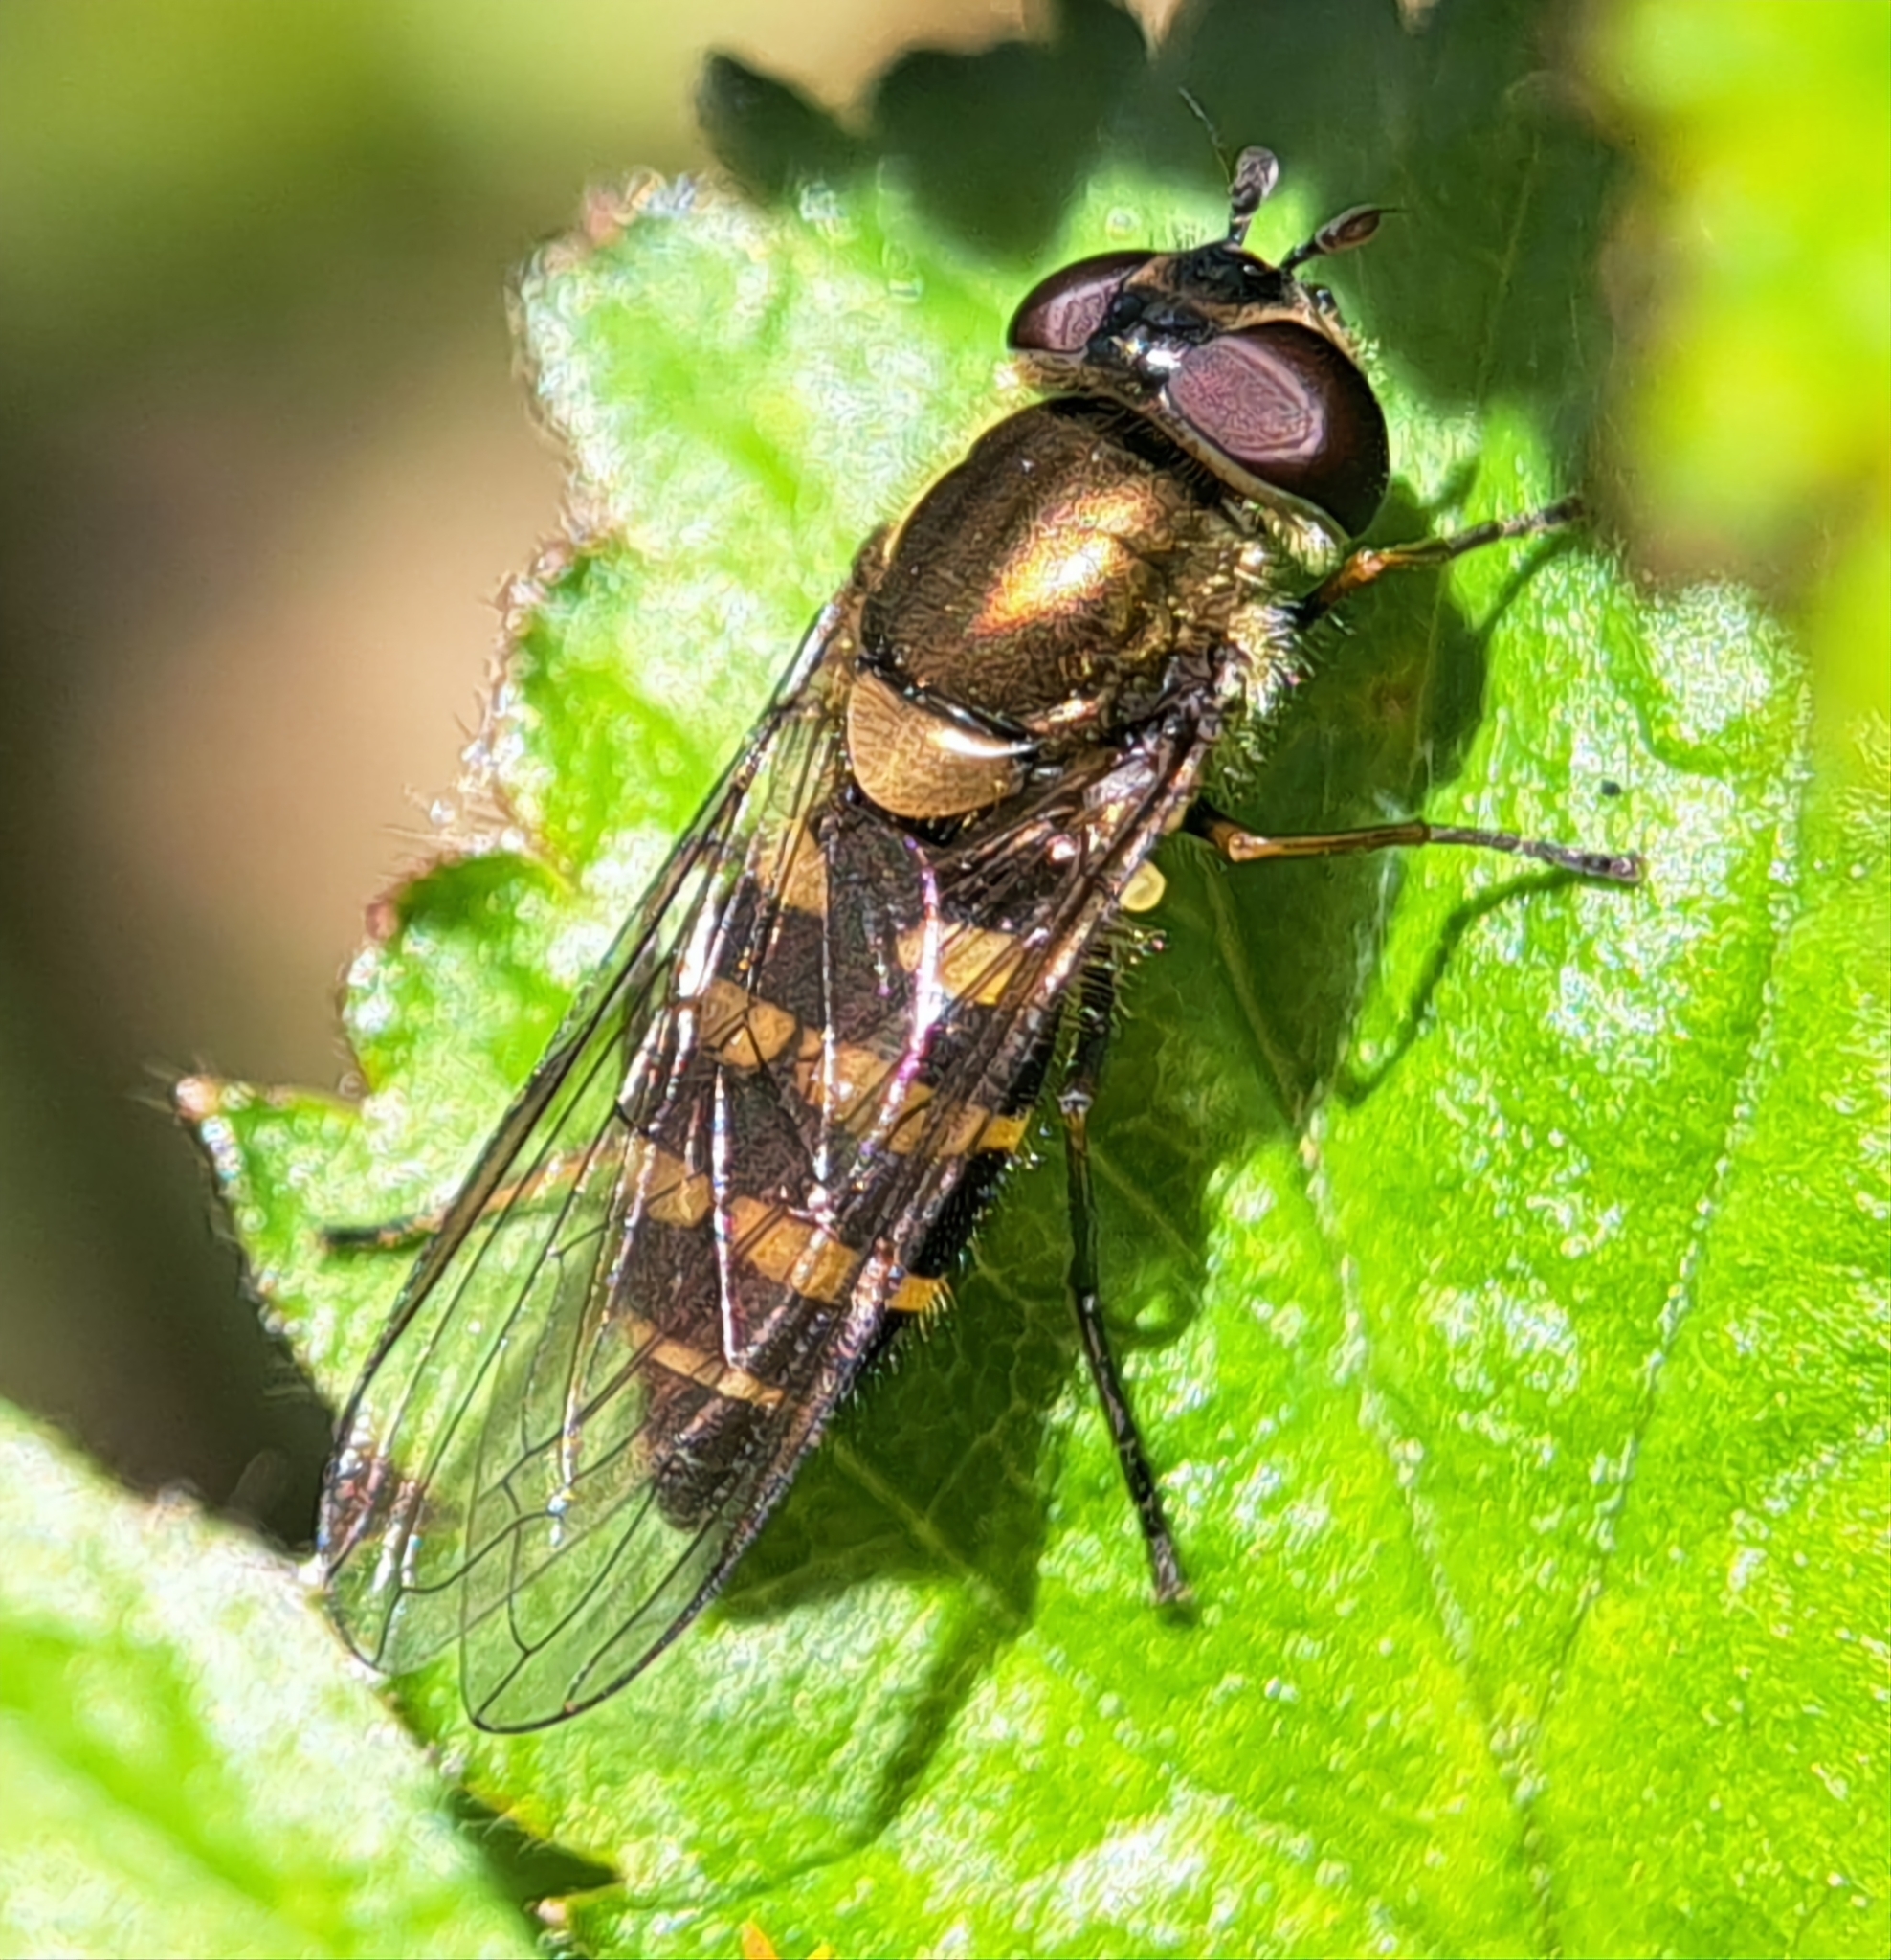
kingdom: Animalia
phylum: Arthropoda
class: Insecta
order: Diptera
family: Syrphidae
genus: Parasyrphus
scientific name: Parasyrphus punctulatus
